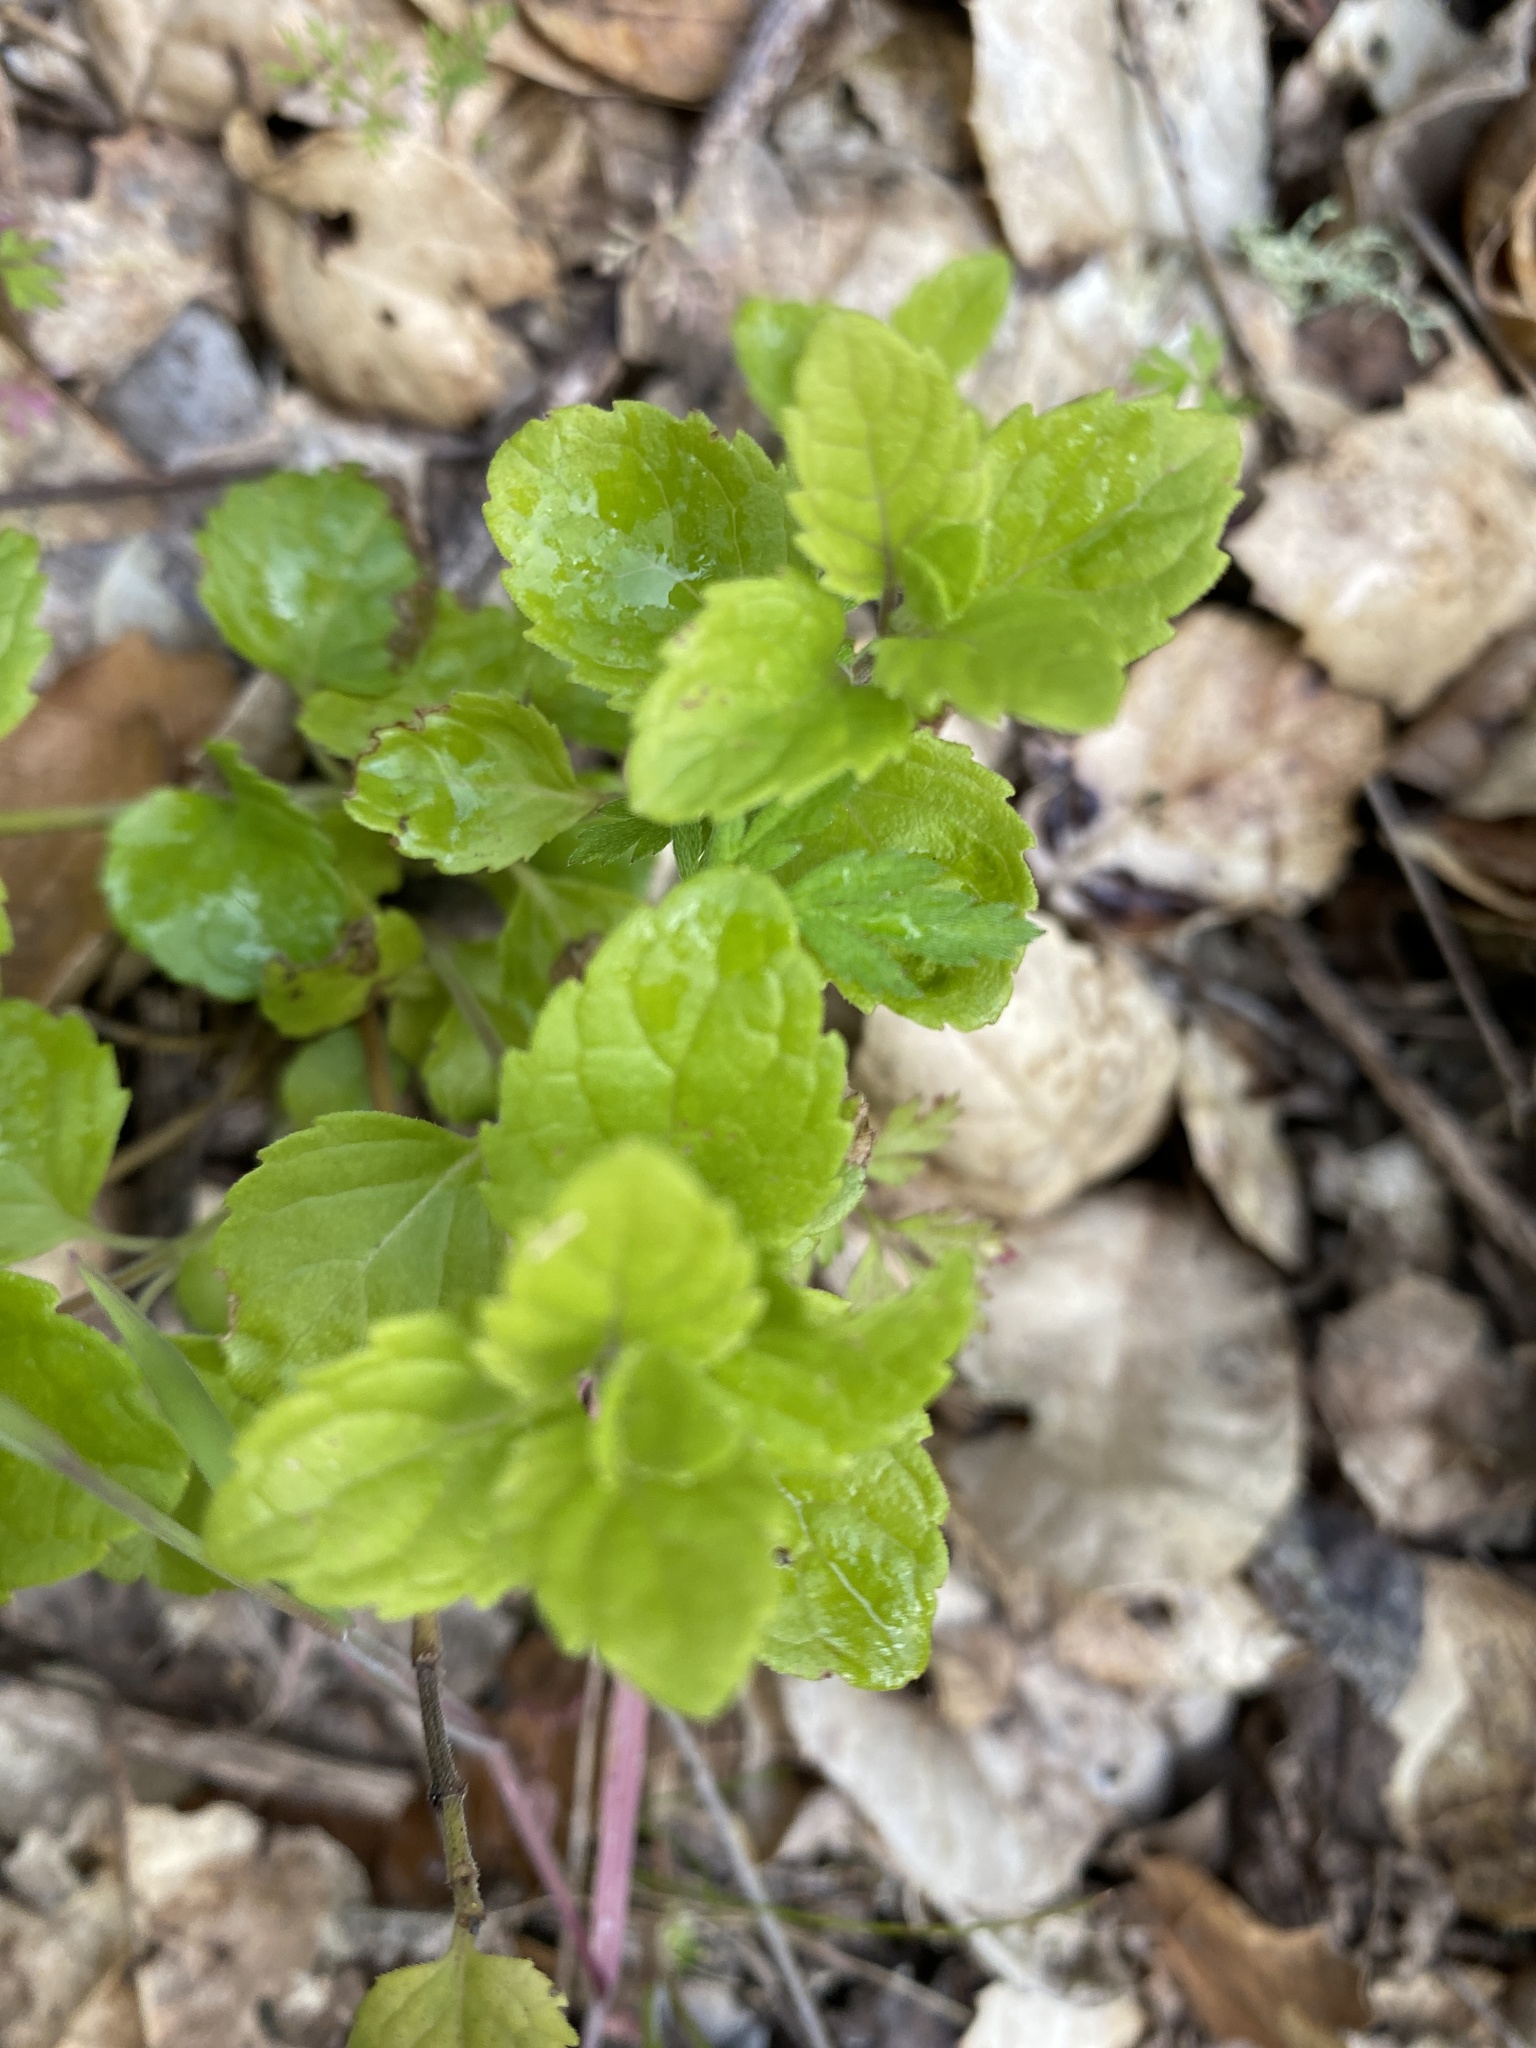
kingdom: Plantae
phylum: Tracheophyta
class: Magnoliopsida
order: Lamiales
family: Lamiaceae
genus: Micromeria
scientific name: Micromeria douglasii
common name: Yerba buena
